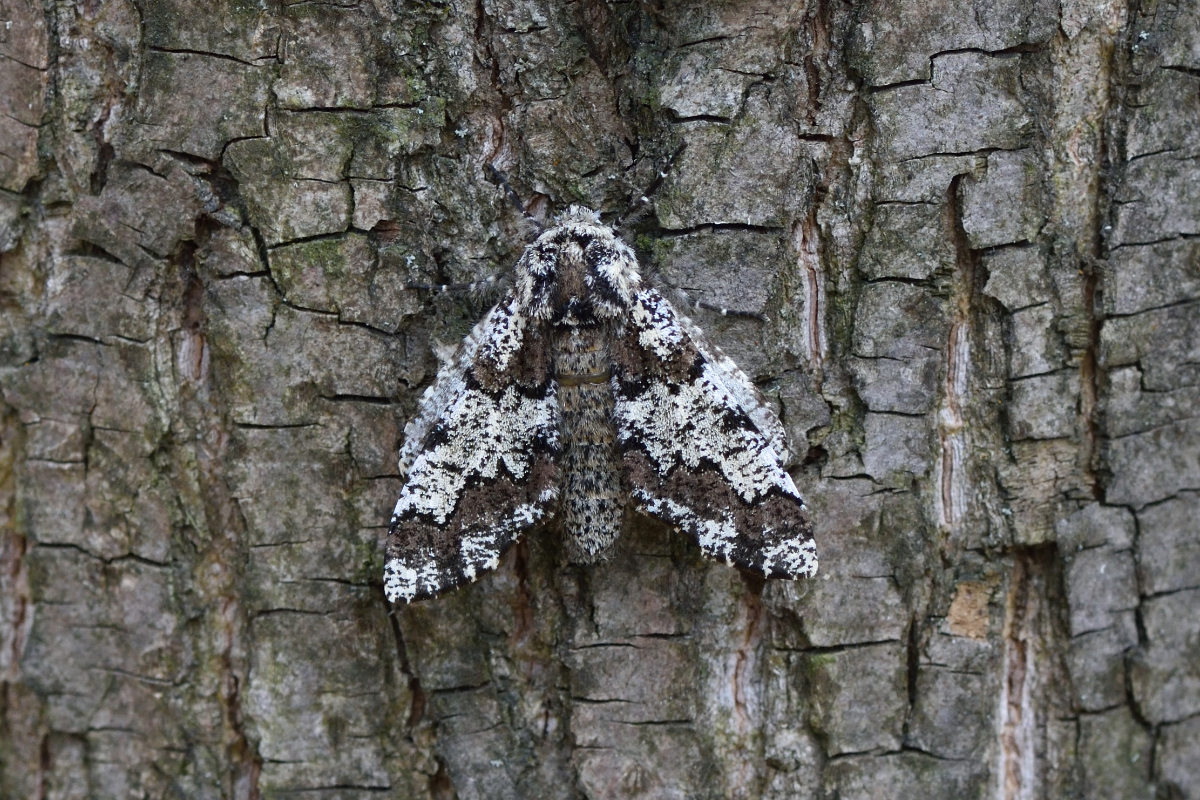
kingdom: Animalia
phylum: Arthropoda
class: Insecta
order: Lepidoptera
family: Geometridae
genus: Biston
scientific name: Biston strataria
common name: Oak beauty
